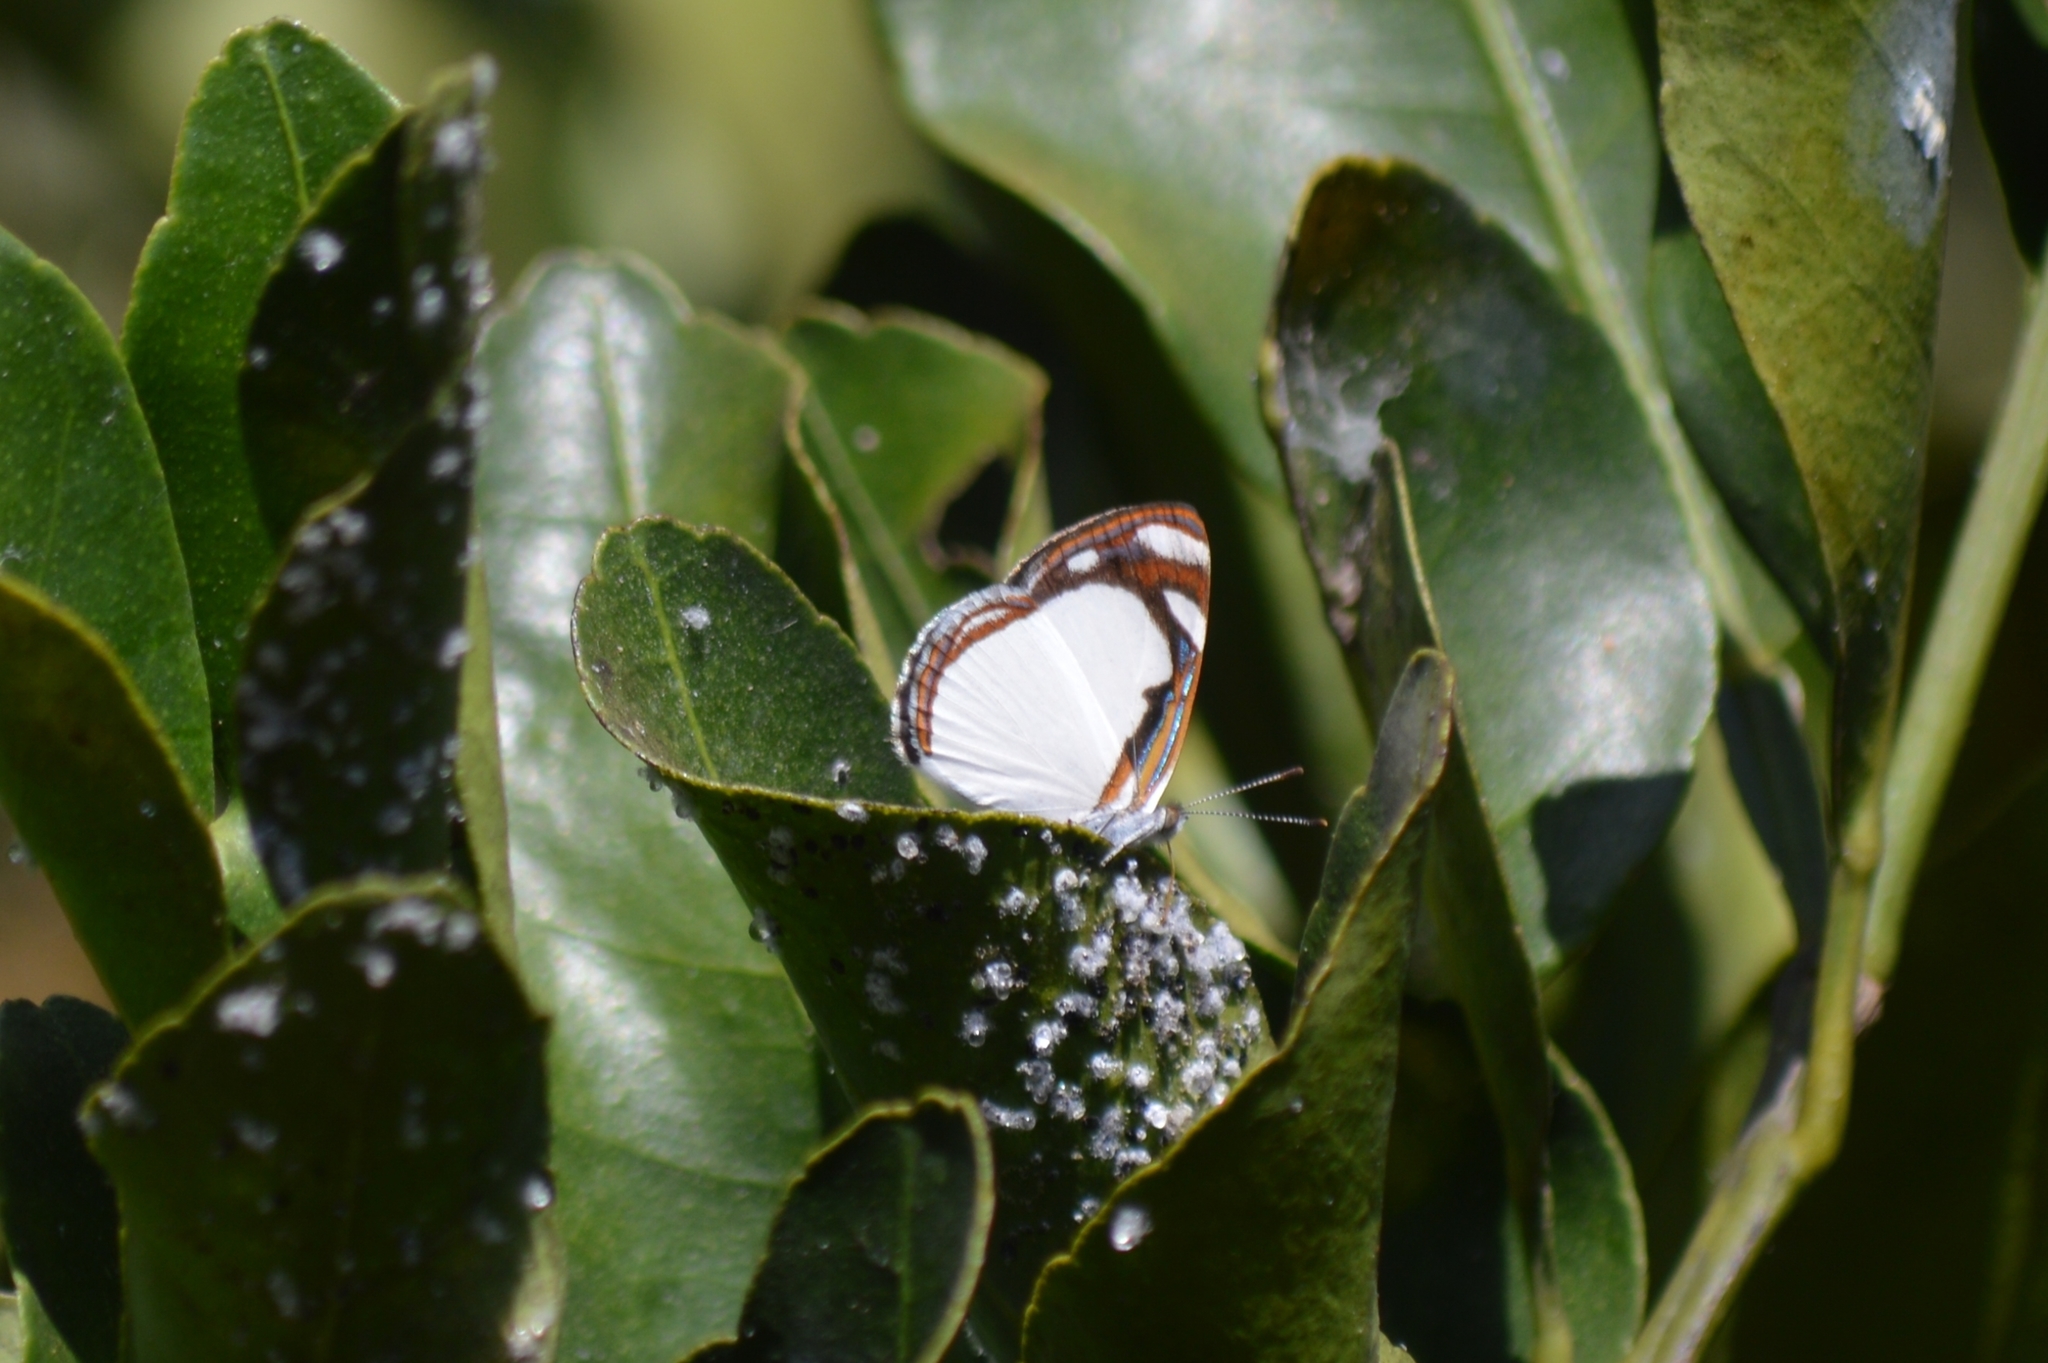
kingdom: Animalia
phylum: Arthropoda
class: Insecta
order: Lepidoptera
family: Nymphalidae
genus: Dynamine
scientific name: Dynamine agacles
